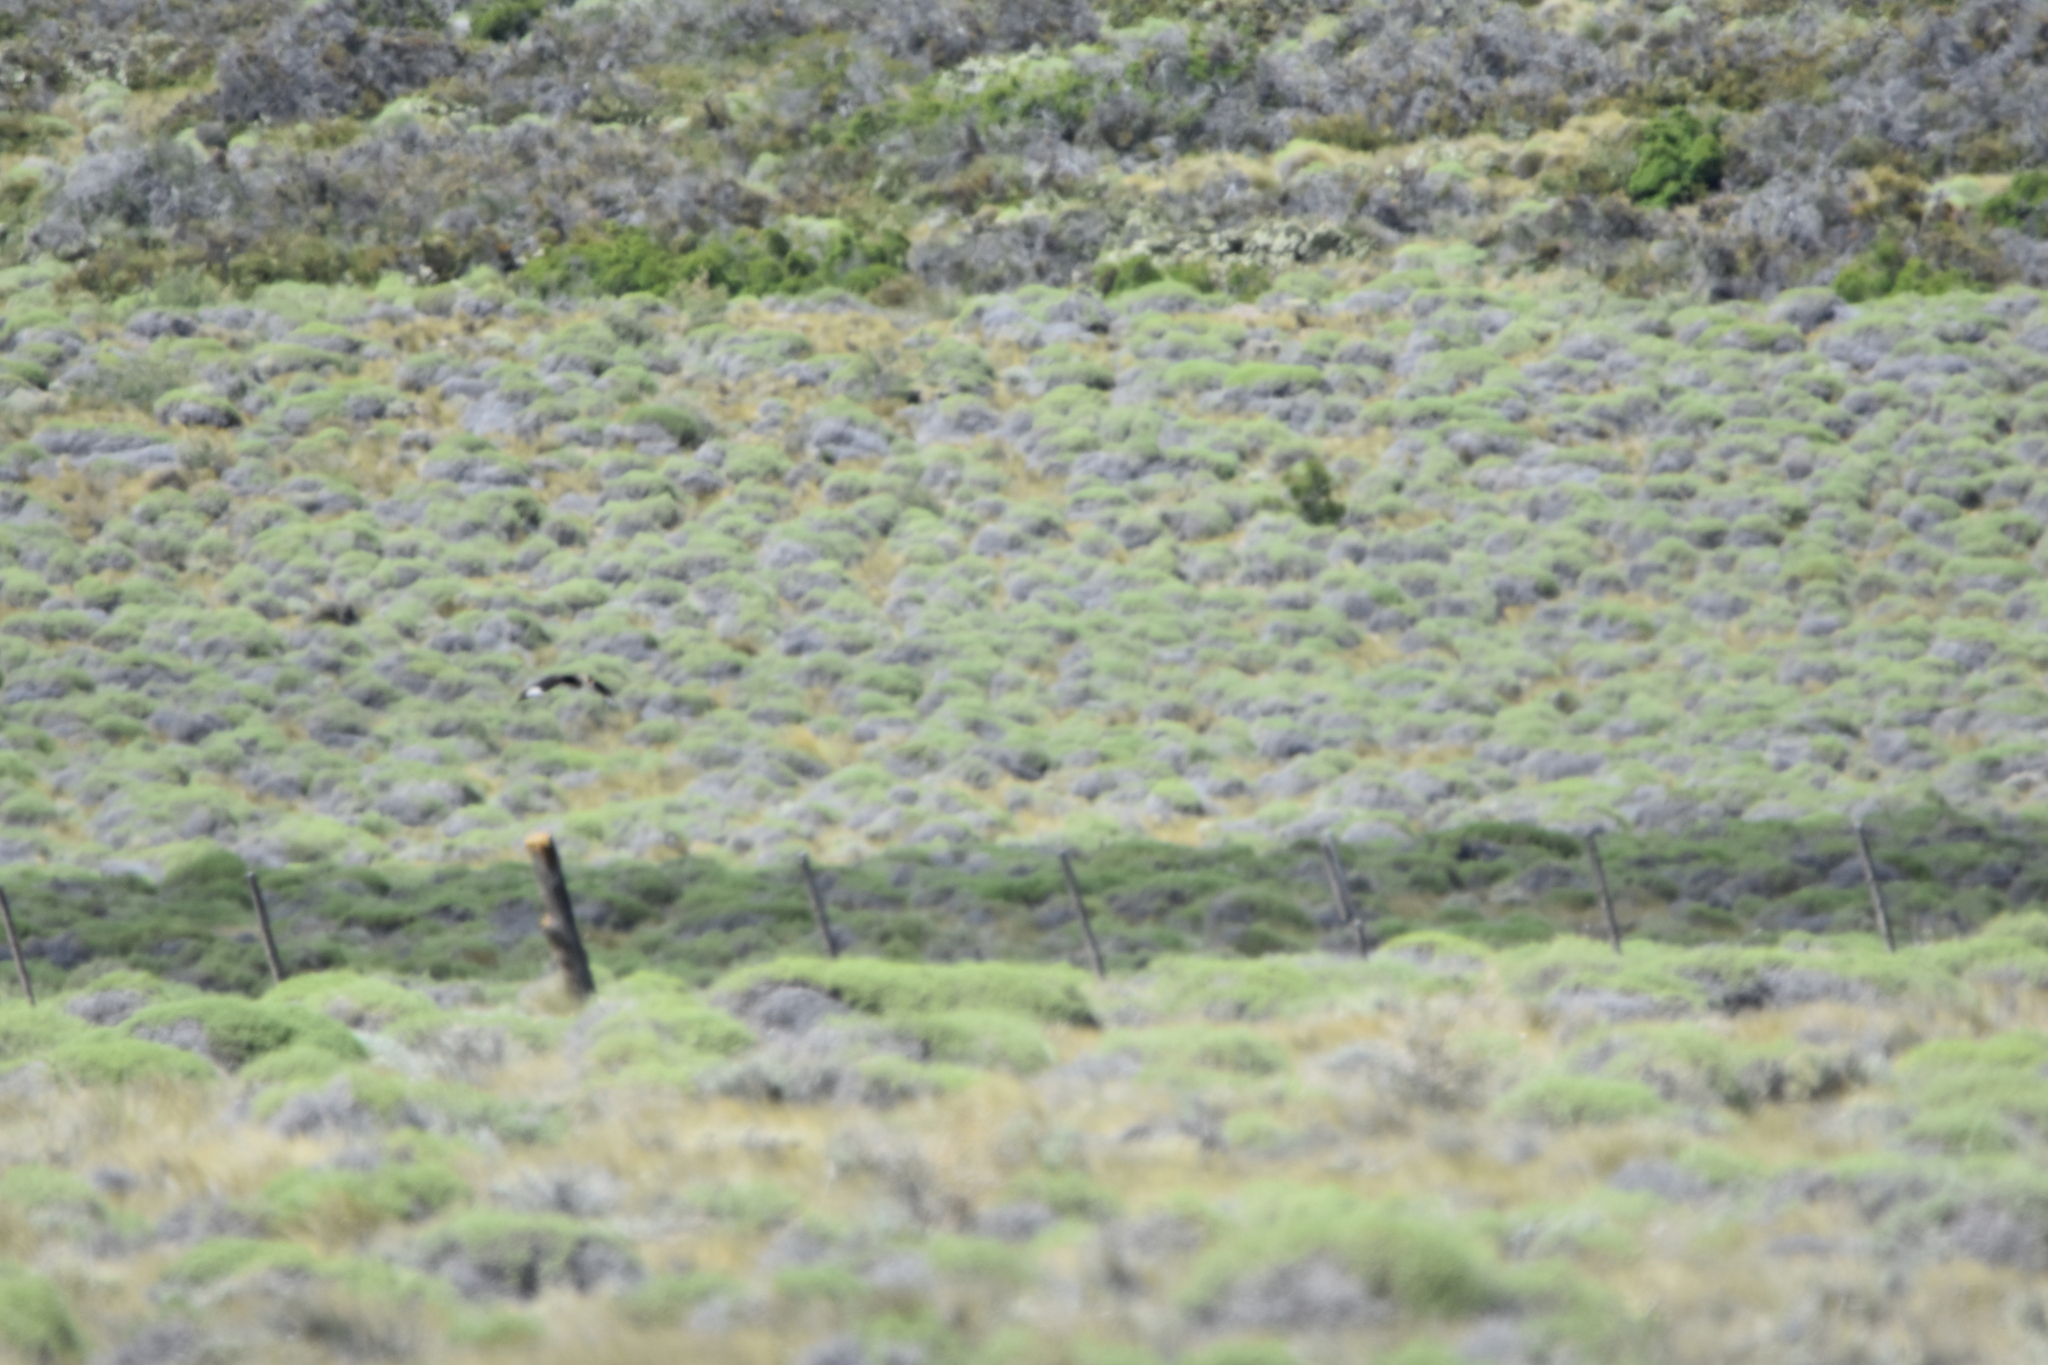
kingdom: Animalia
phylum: Chordata
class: Aves
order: Falconiformes
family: Falconidae
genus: Caracara
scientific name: Caracara plancus
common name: Southern caracara
